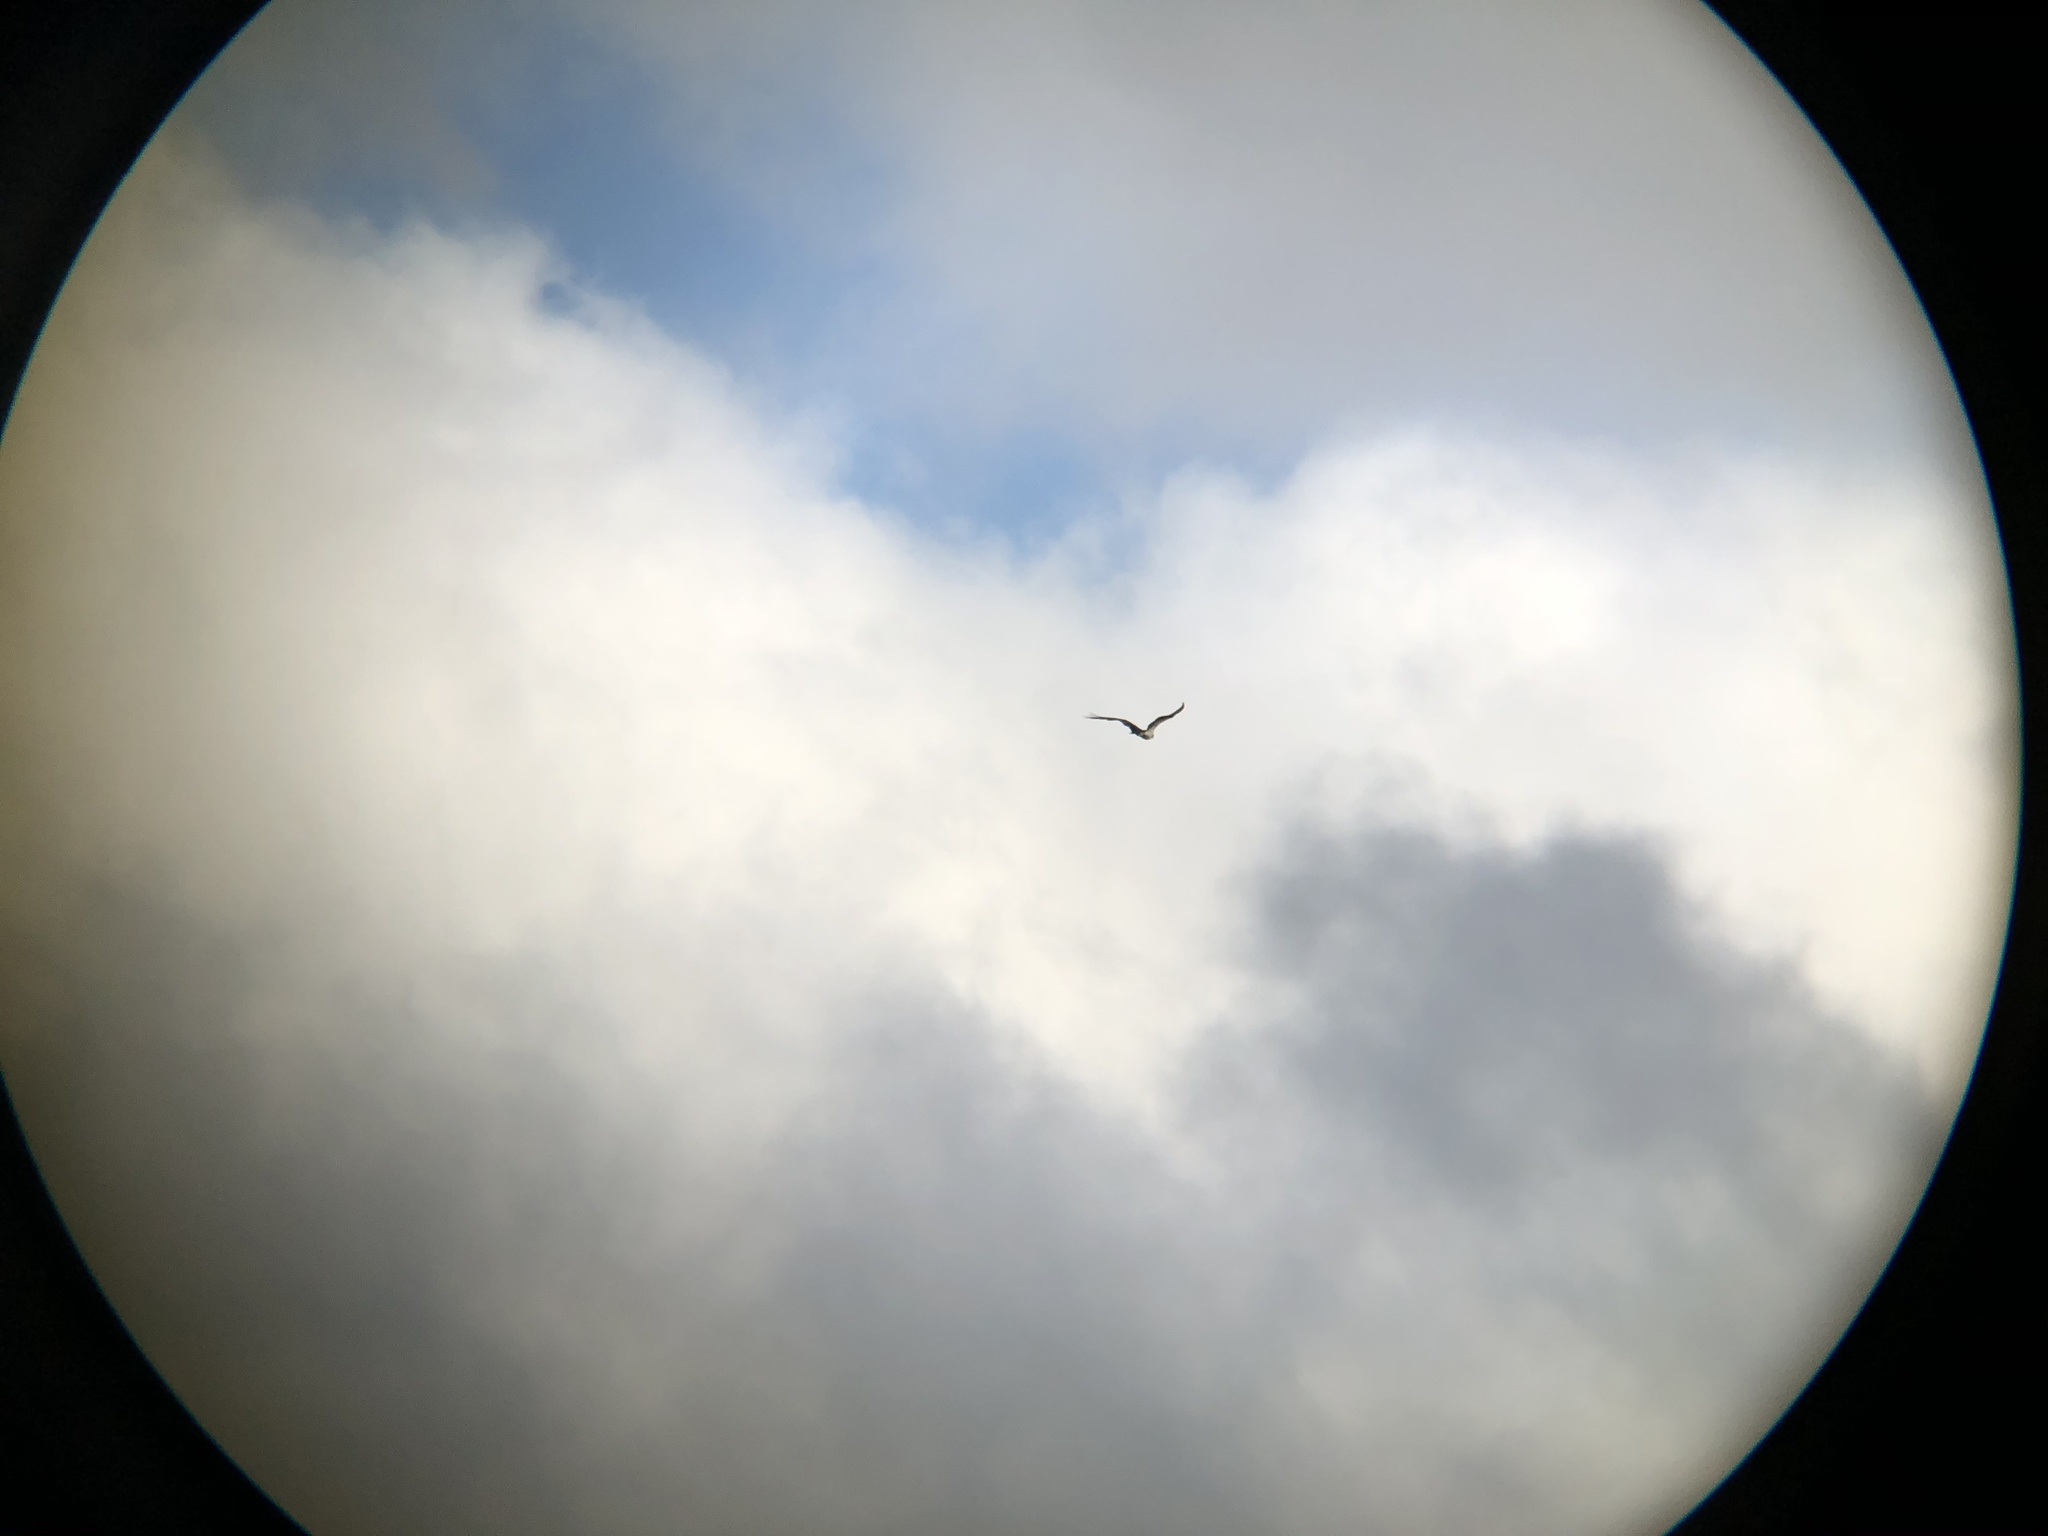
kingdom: Animalia
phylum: Chordata
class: Aves
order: Accipitriformes
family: Pandionidae
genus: Pandion
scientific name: Pandion haliaetus
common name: Osprey
